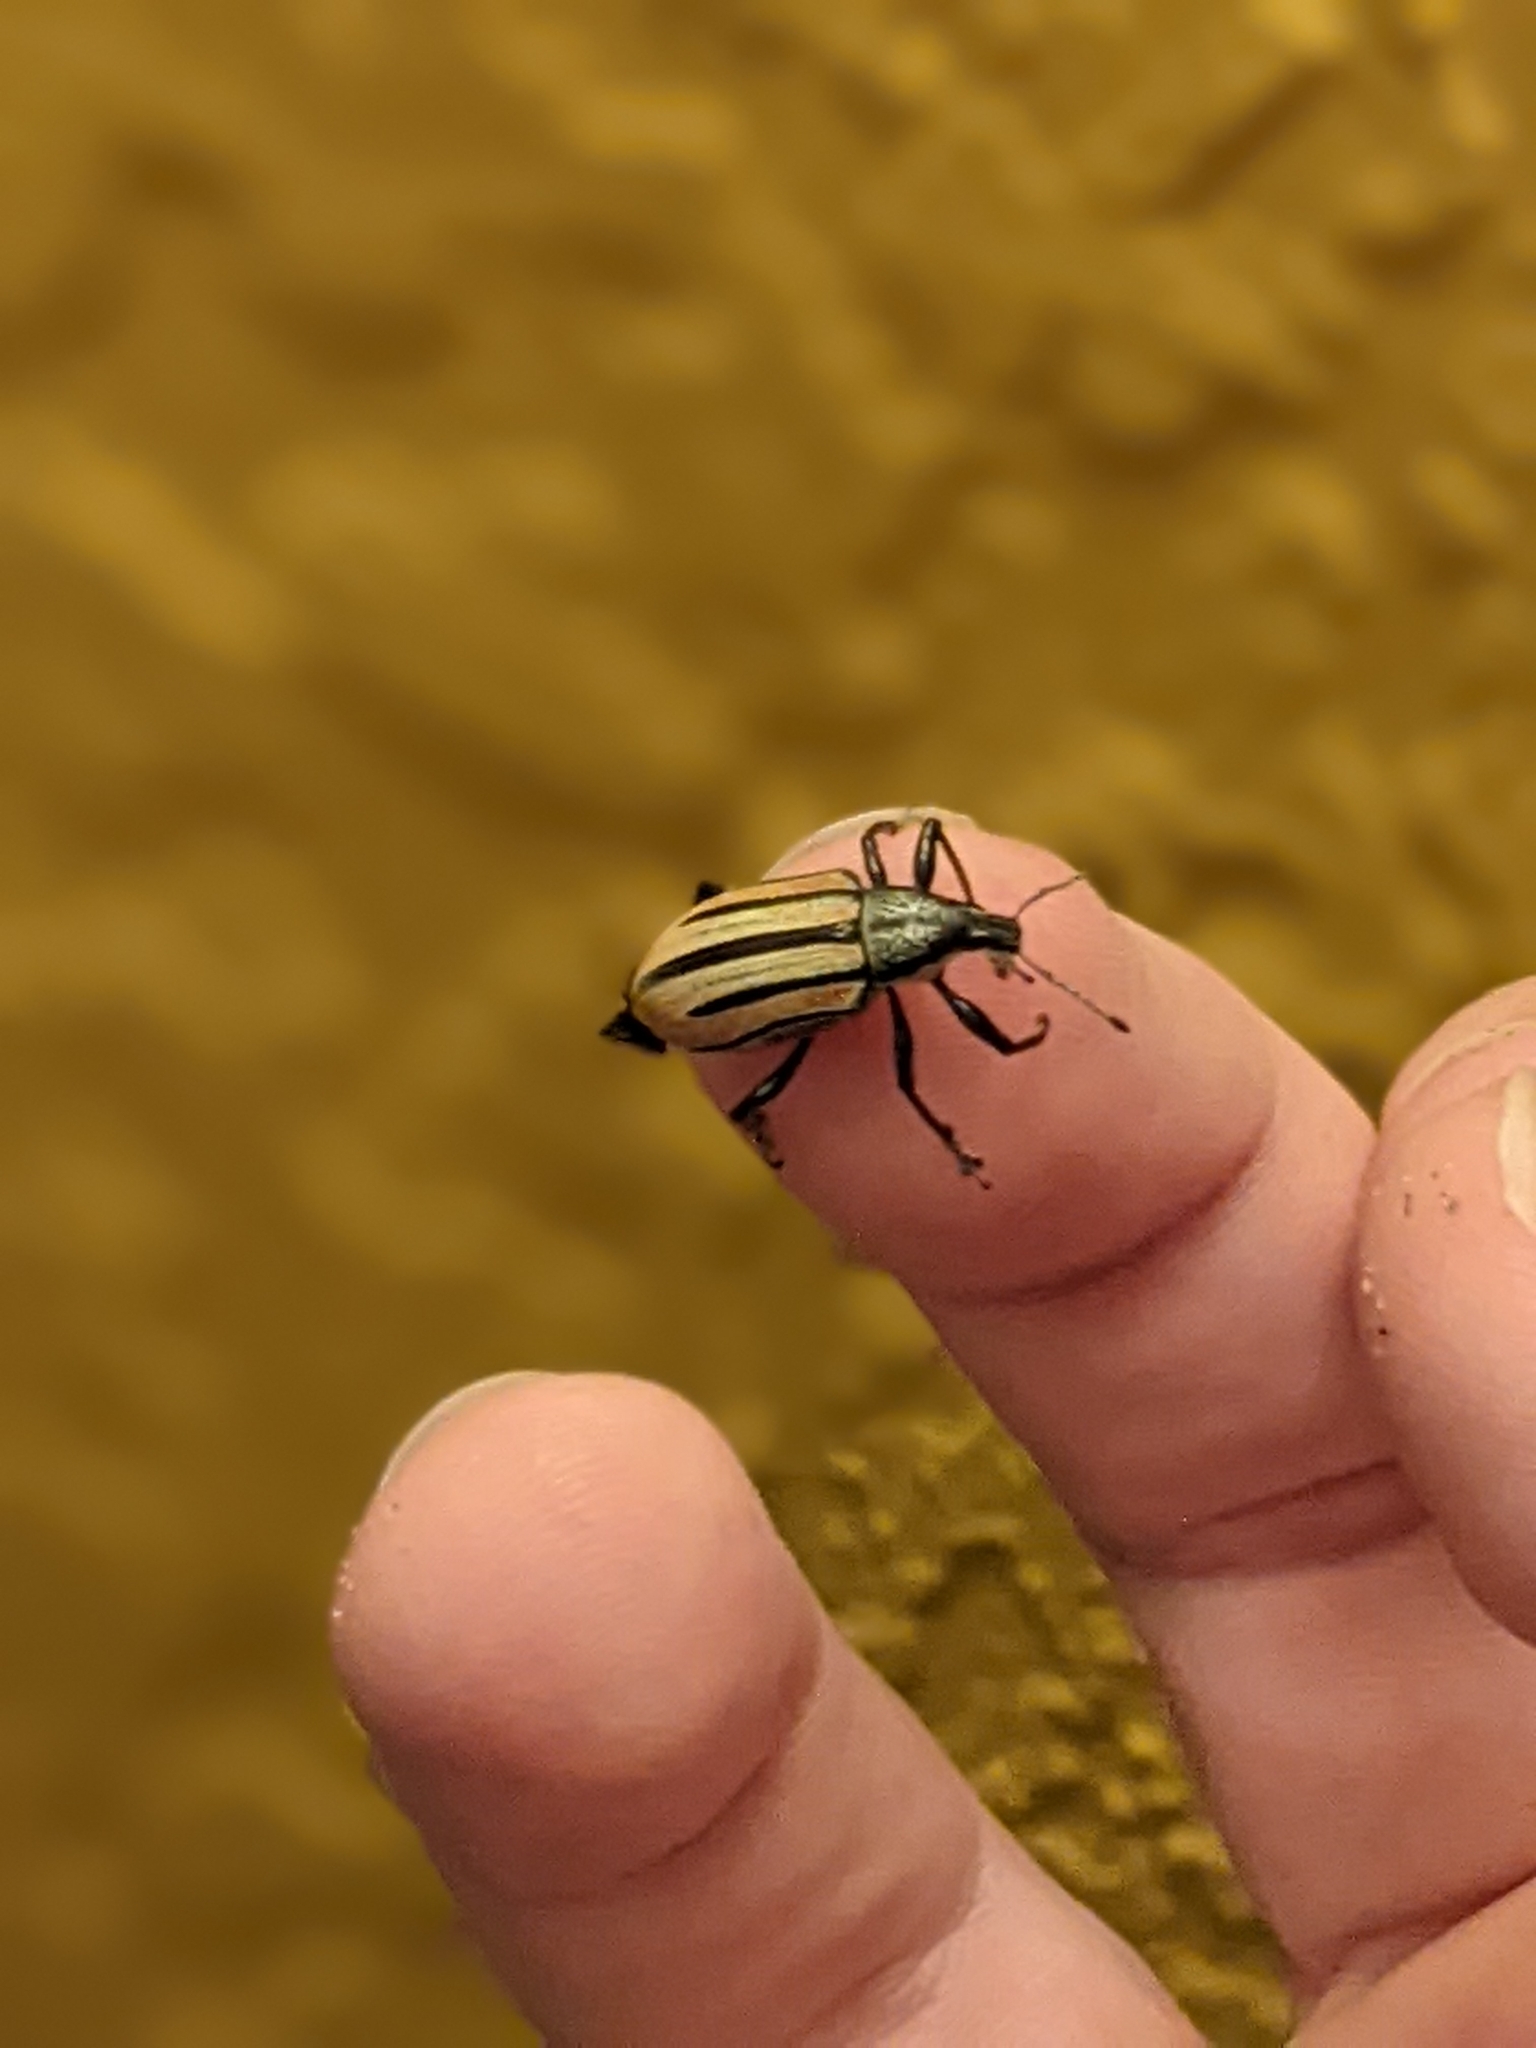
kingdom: Animalia
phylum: Arthropoda
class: Insecta
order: Coleoptera
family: Curculionidae
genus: Diaprepes
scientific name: Diaprepes abbreviatus
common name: Root weevil
